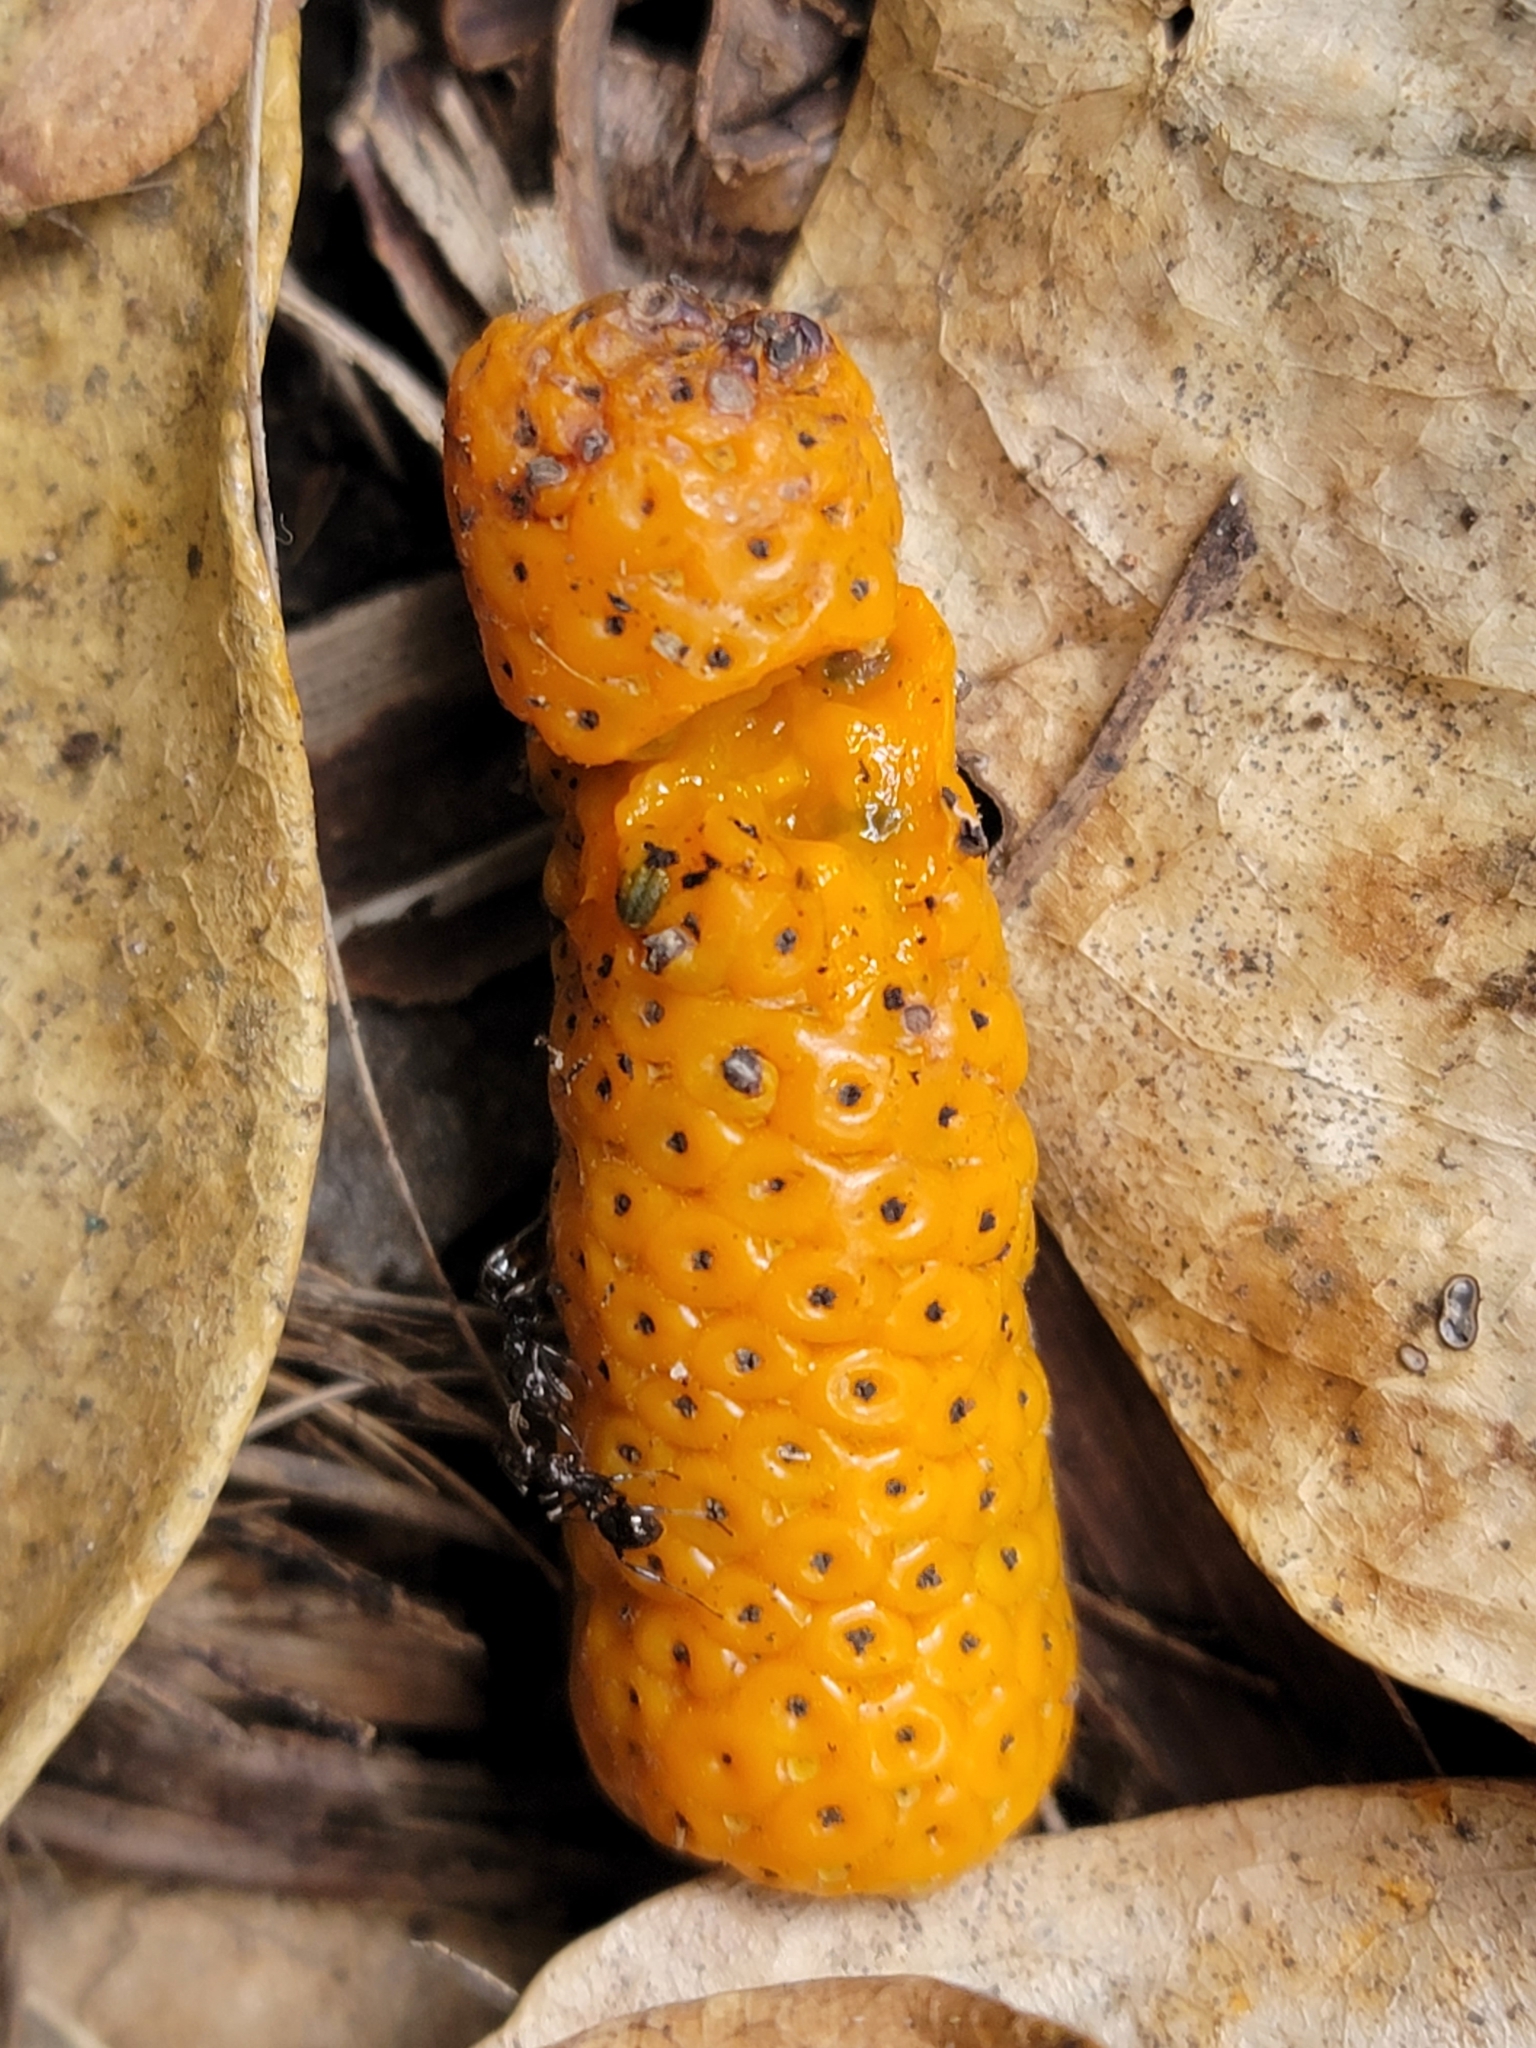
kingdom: Plantae
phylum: Tracheophyta
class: Magnoliopsida
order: Piperales
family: Piperaceae
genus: Macropiper
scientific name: Macropiper excelsum
